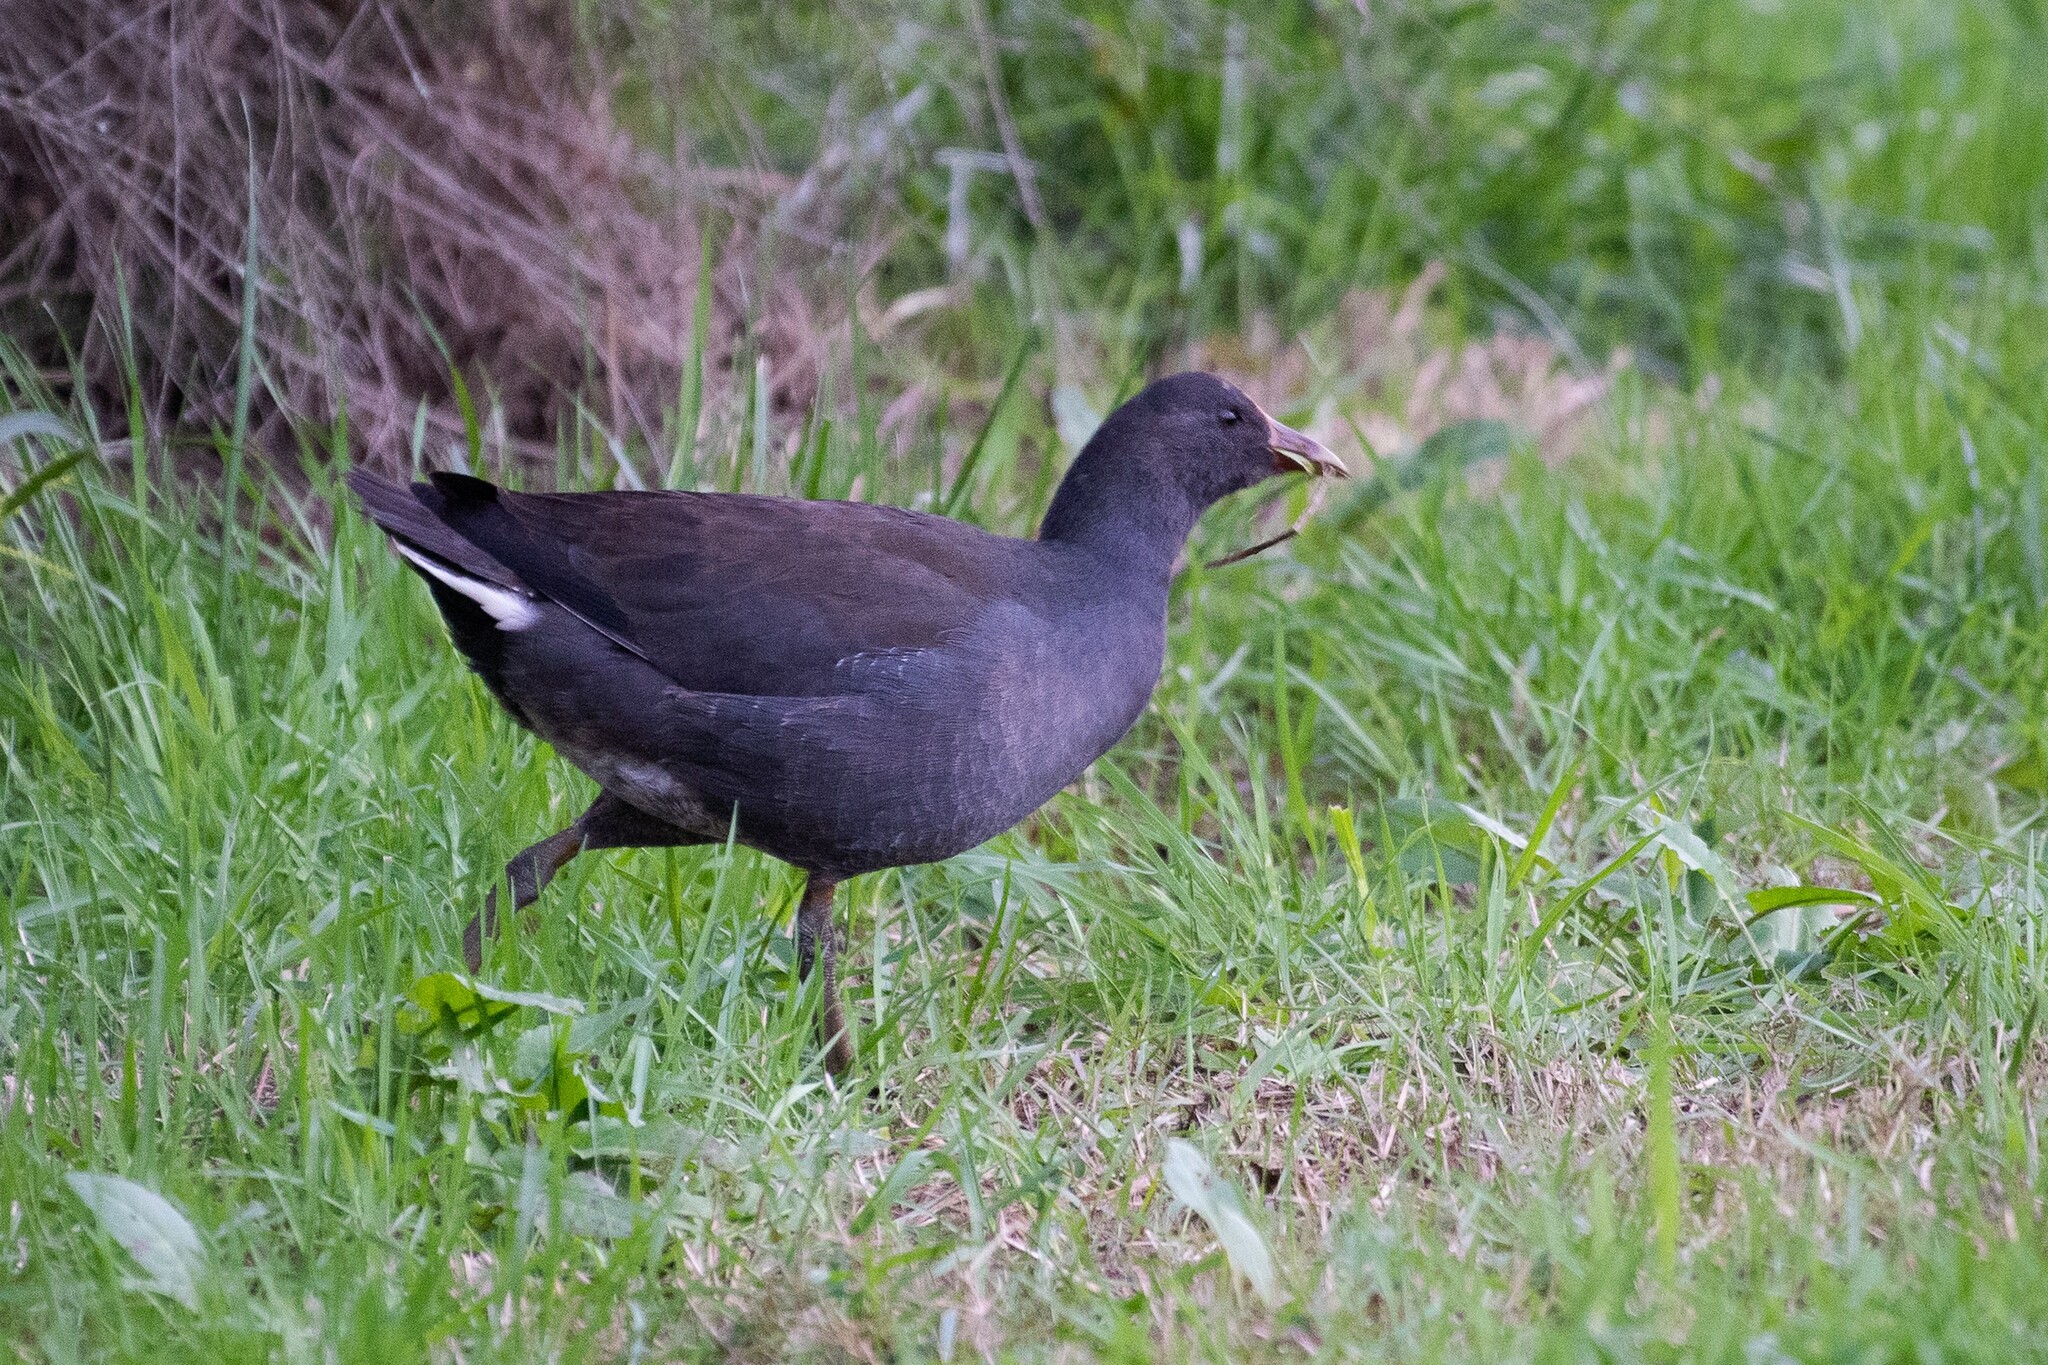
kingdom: Animalia
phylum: Chordata
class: Aves
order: Gruiformes
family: Rallidae
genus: Gallinula
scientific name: Gallinula tenebrosa
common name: Dusky moorhen
